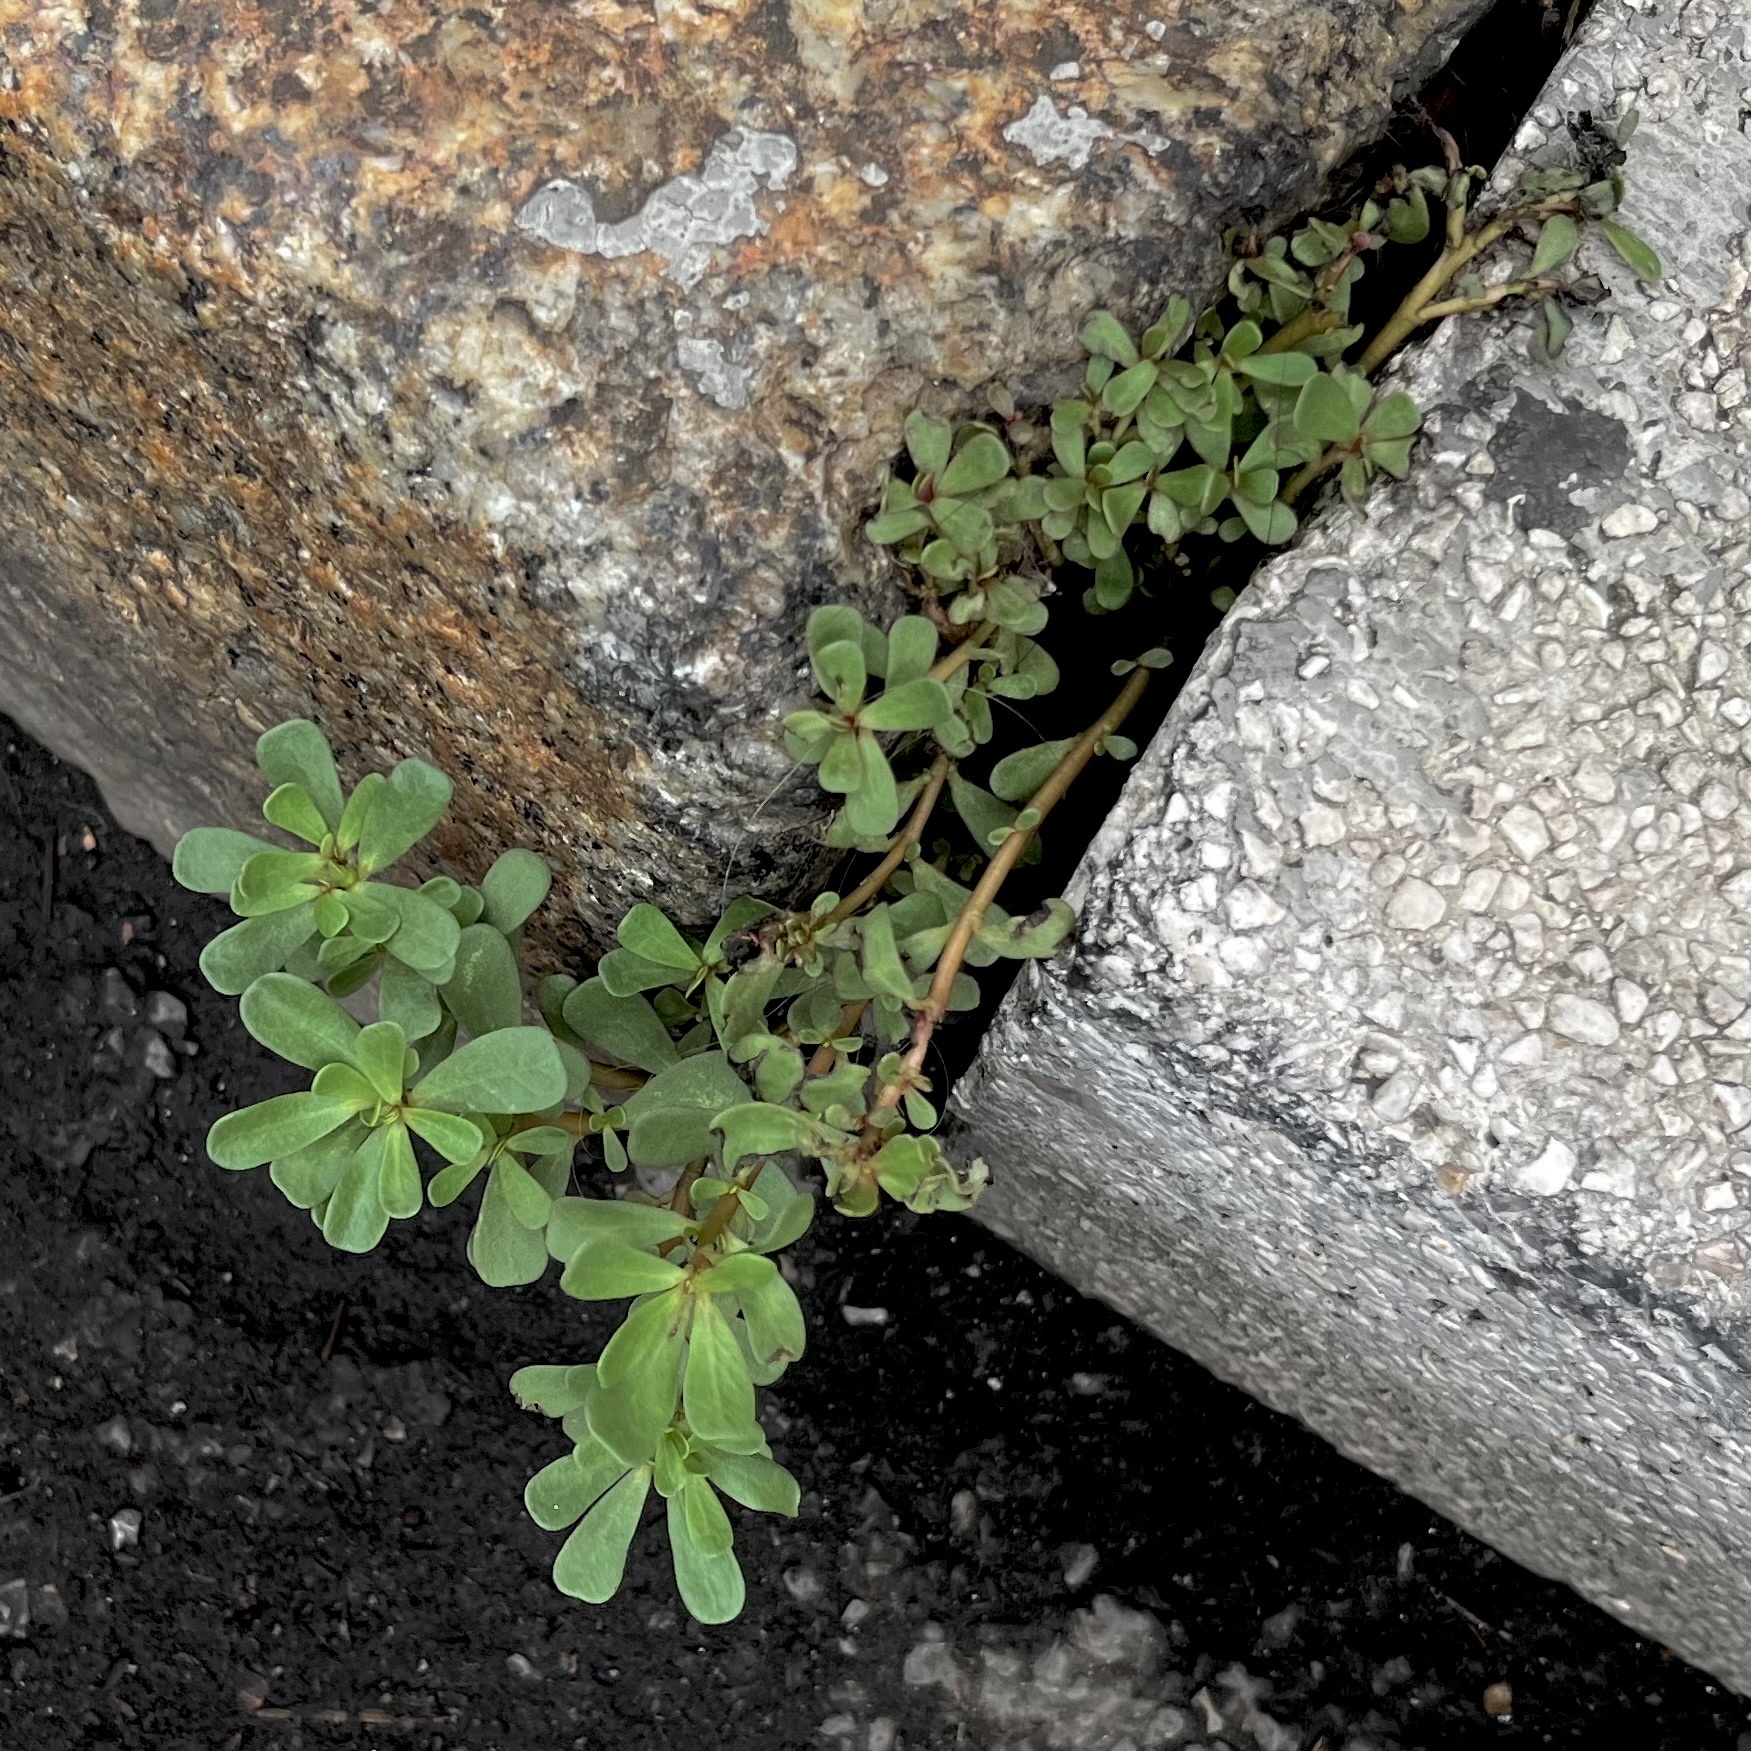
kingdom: Plantae
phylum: Tracheophyta
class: Magnoliopsida
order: Caryophyllales
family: Portulacaceae
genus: Portulaca
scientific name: Portulaca oleracea
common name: Common purslane
